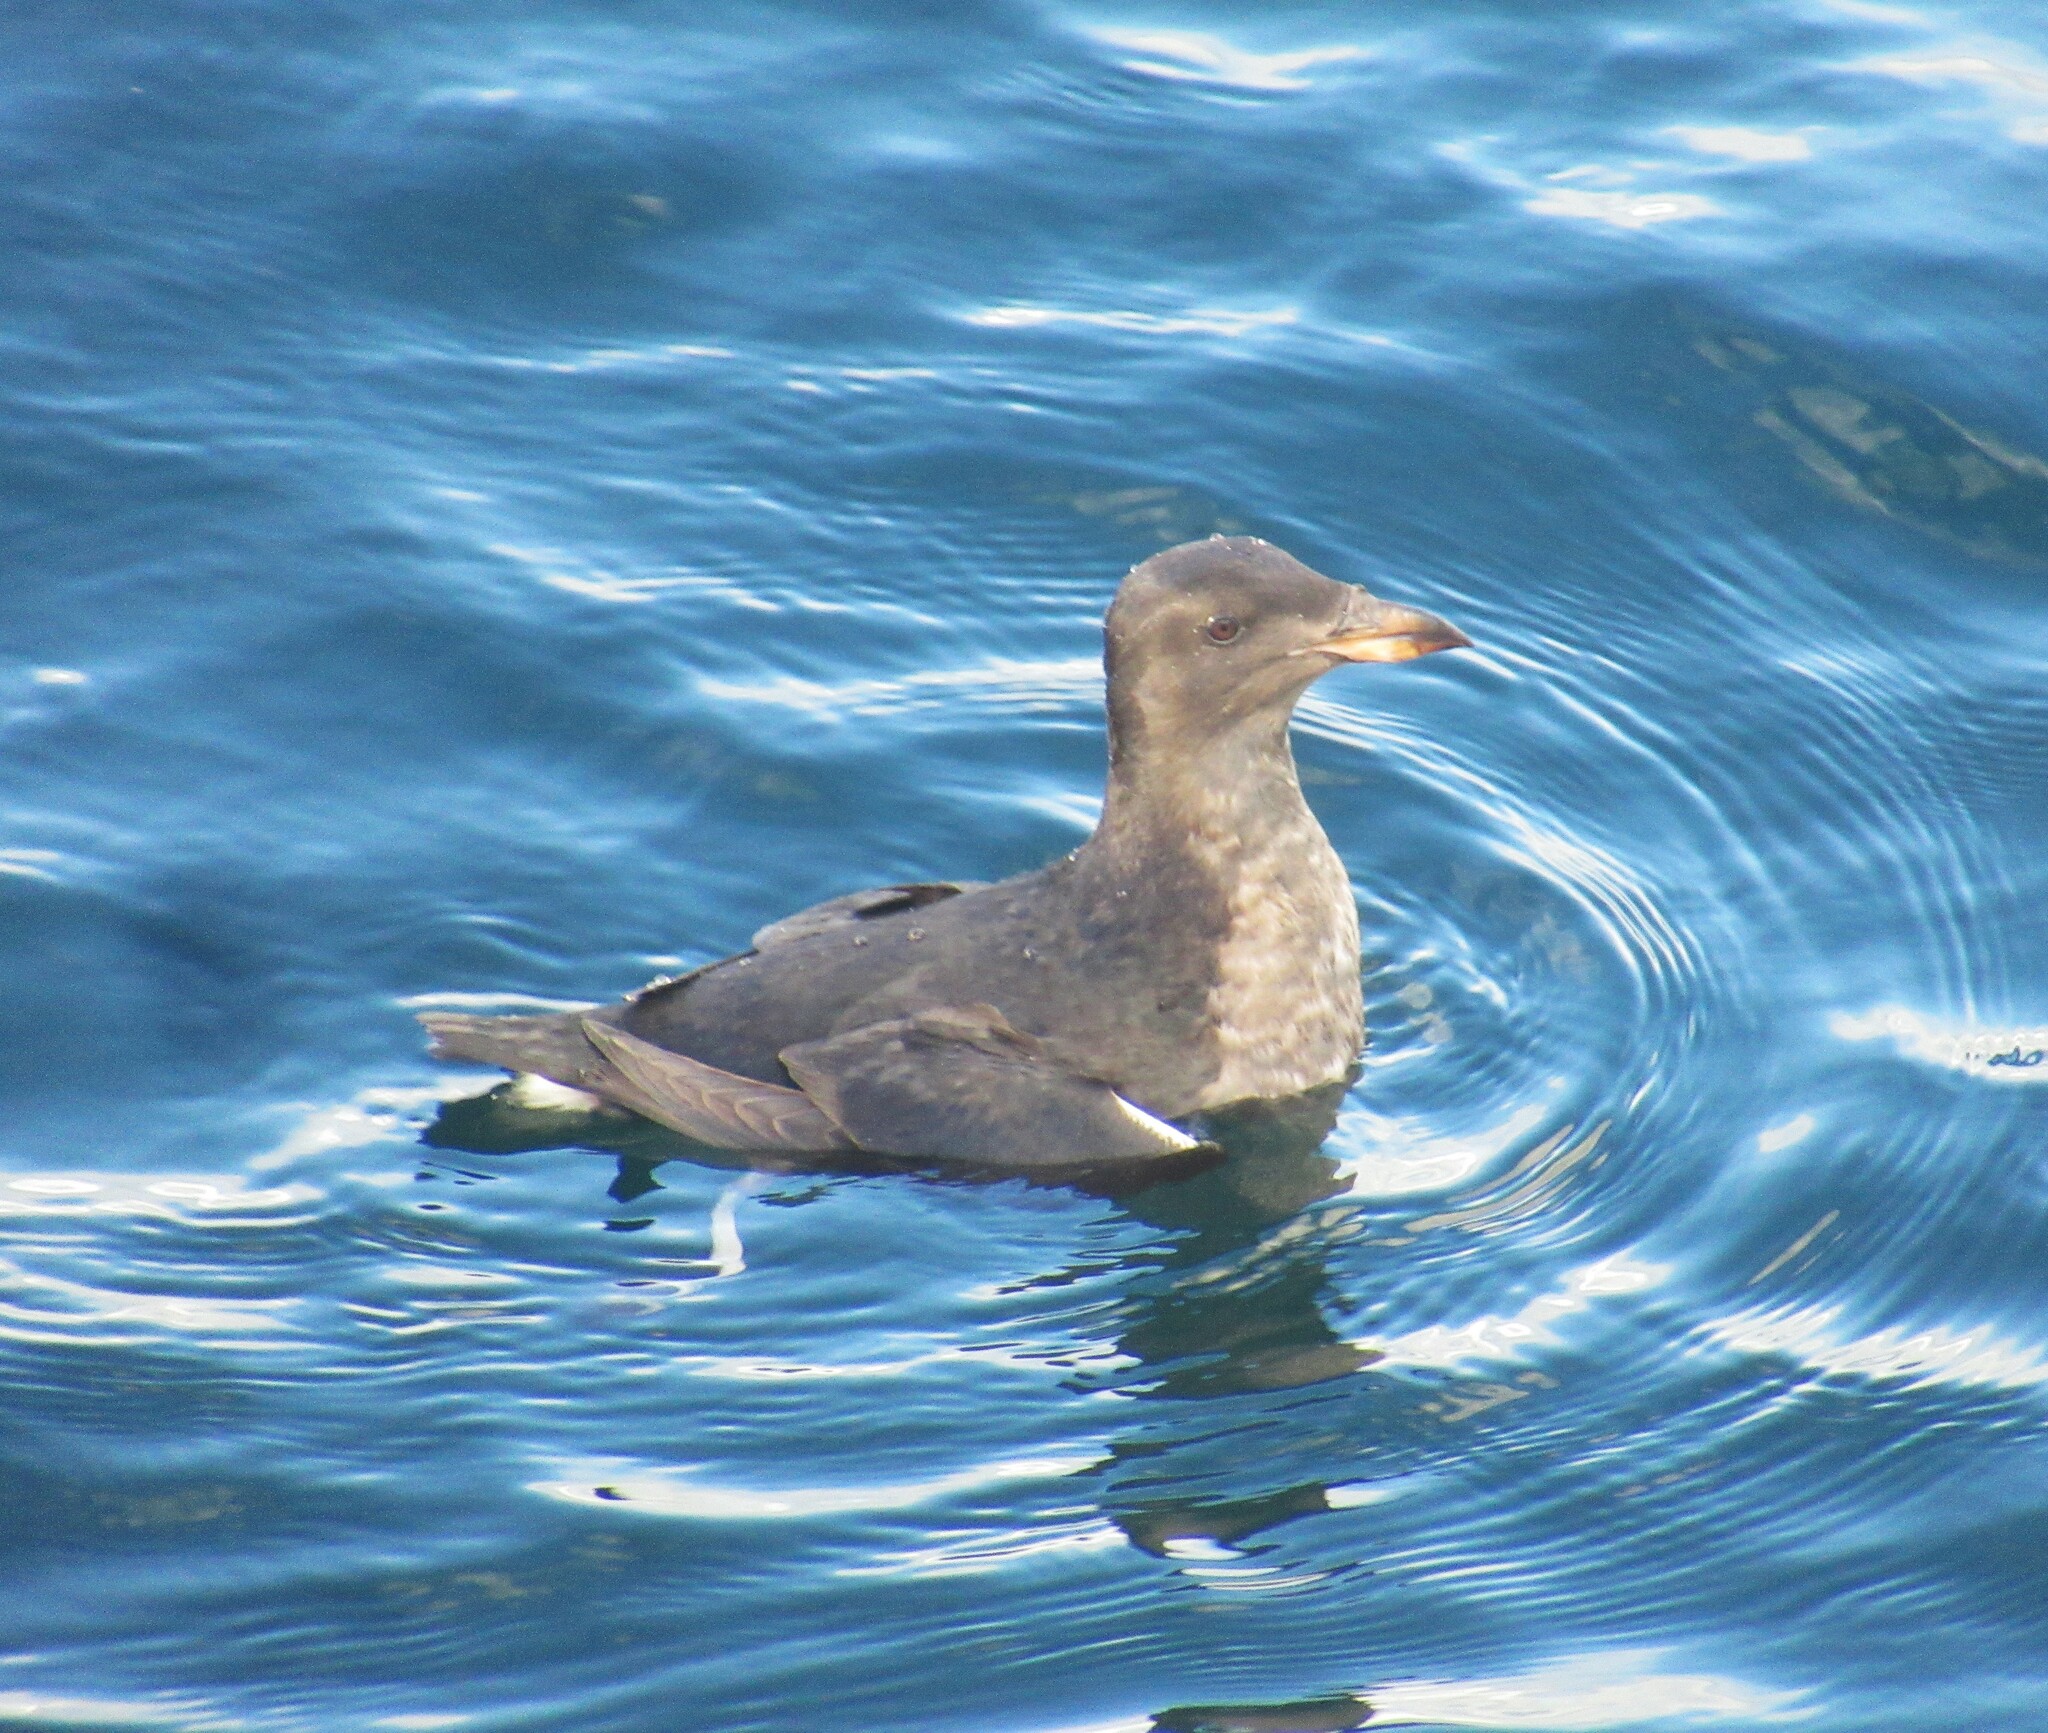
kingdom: Animalia
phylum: Chordata
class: Aves
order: Charadriiformes
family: Alcidae
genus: Cerorhinca
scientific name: Cerorhinca monocerata
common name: Rhinoceros auklet
